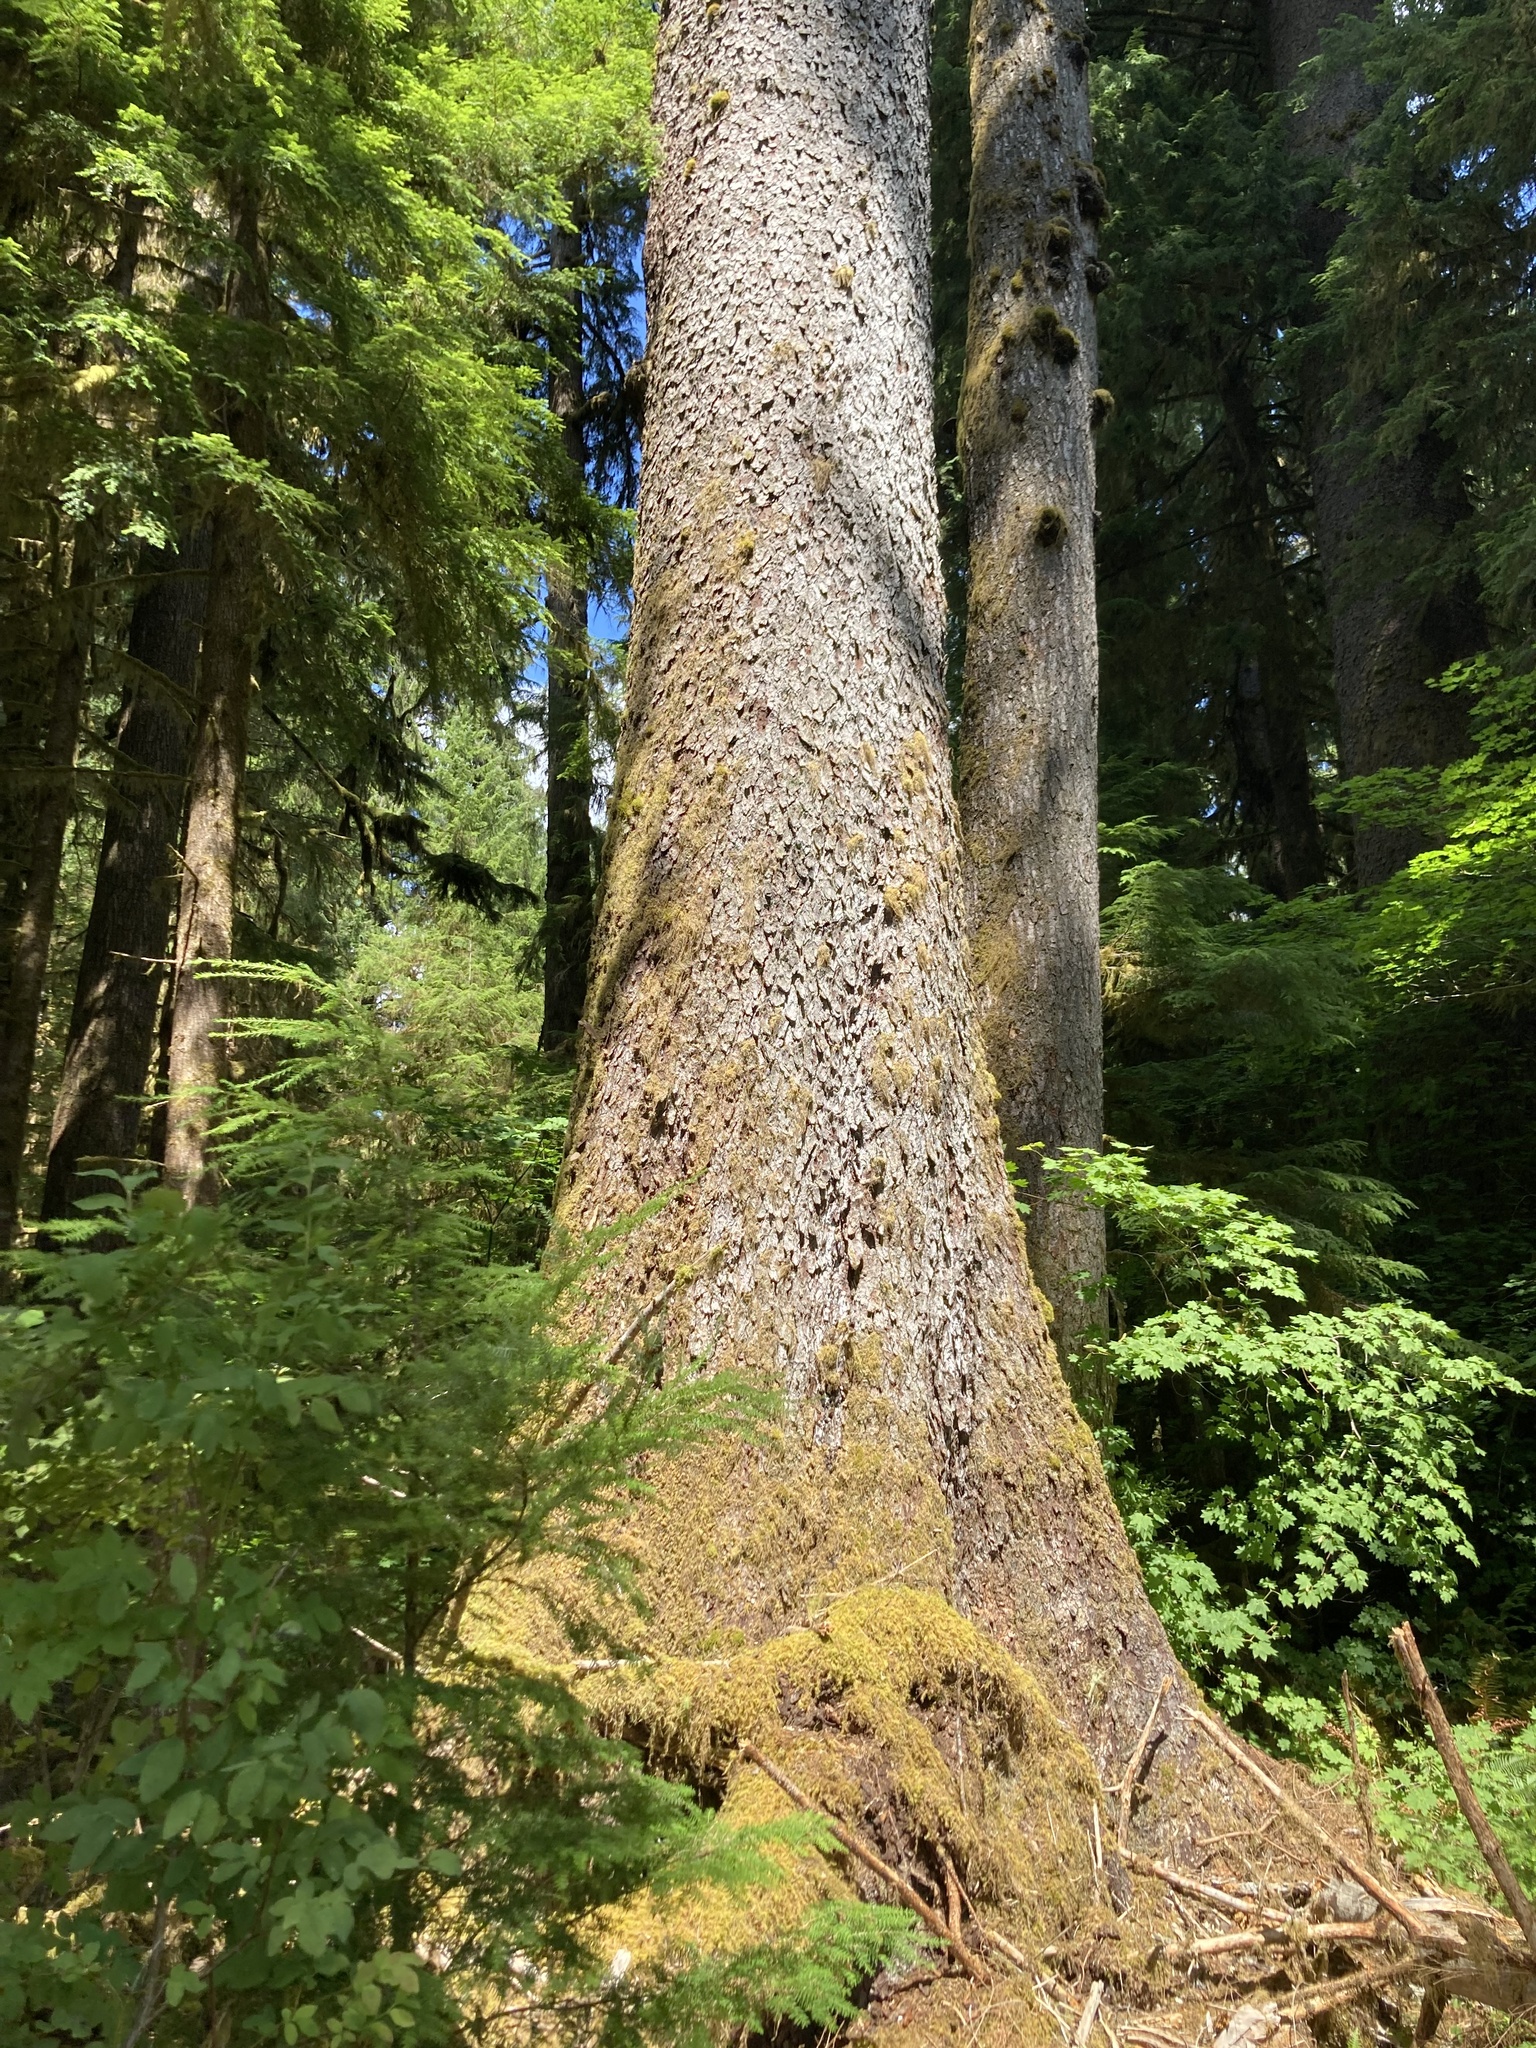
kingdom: Plantae
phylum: Tracheophyta
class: Pinopsida
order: Pinales
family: Pinaceae
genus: Picea
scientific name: Picea sitchensis
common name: Sitka spruce
